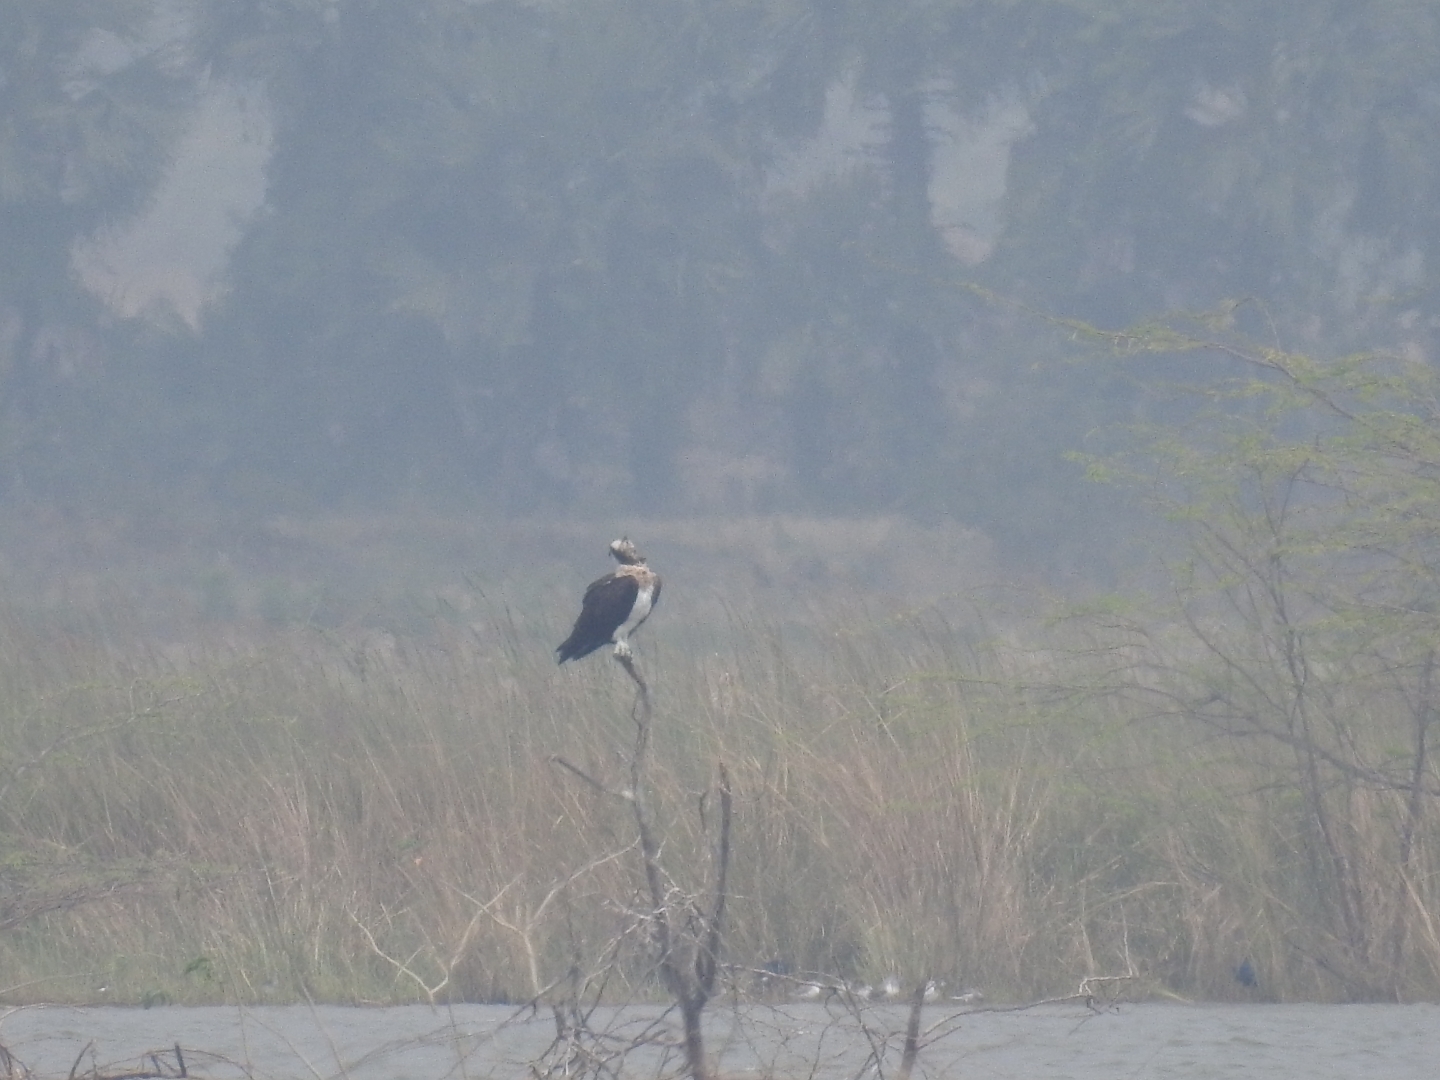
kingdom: Animalia
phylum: Chordata
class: Aves
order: Accipitriformes
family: Pandionidae
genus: Pandion
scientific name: Pandion haliaetus
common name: Osprey
